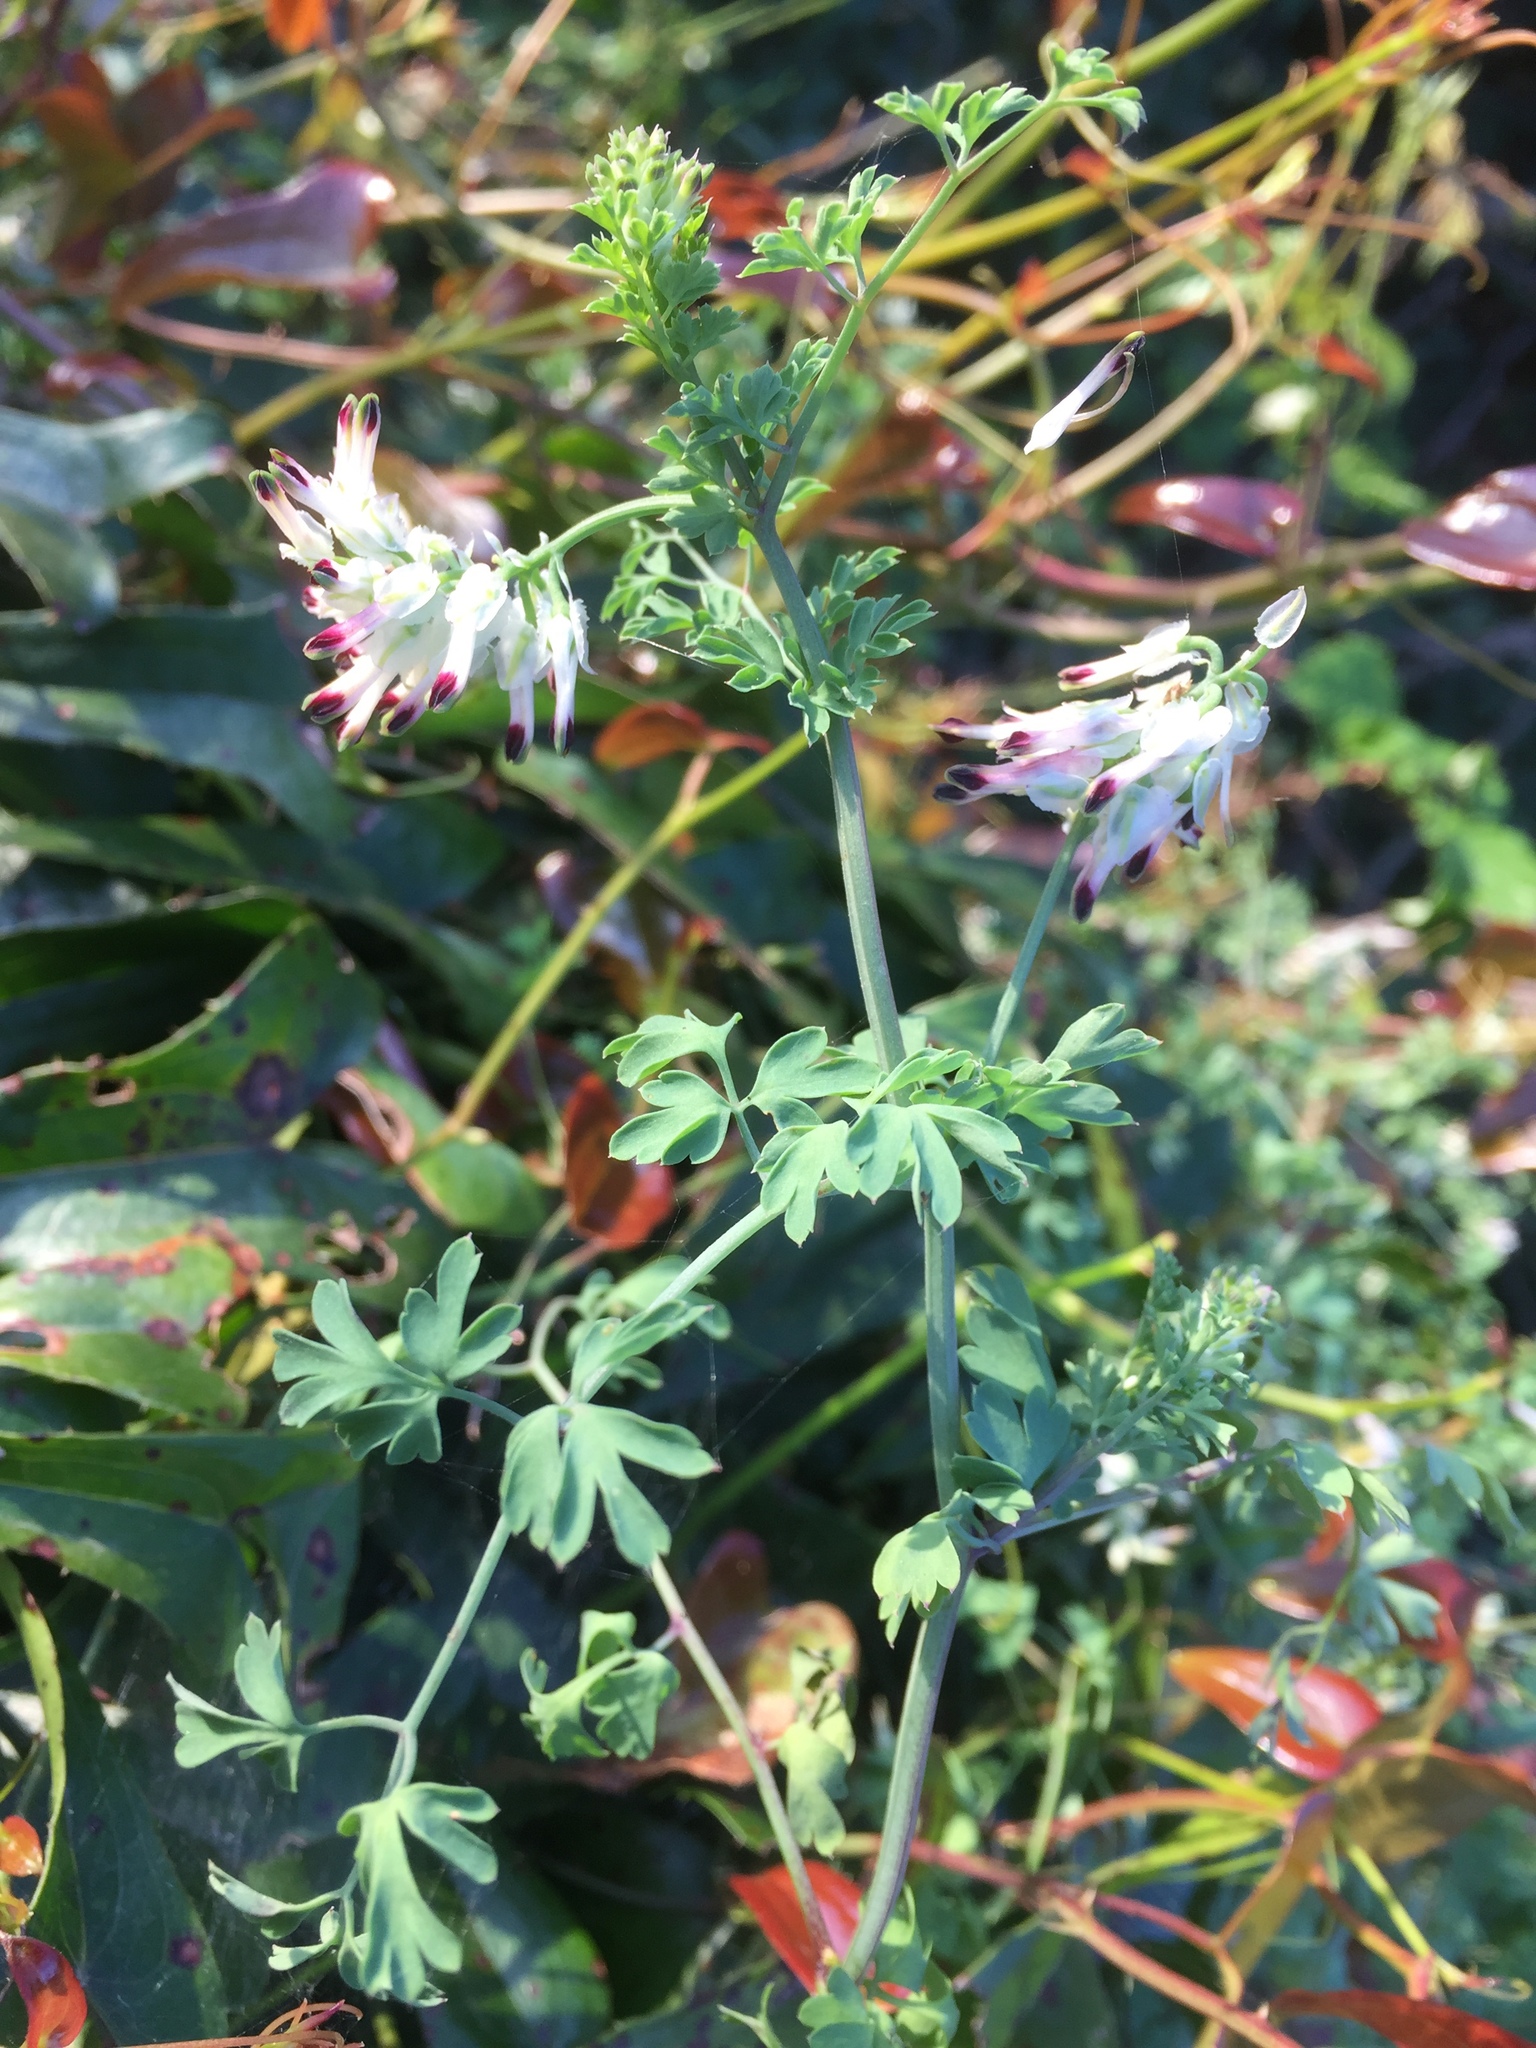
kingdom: Plantae
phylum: Tracheophyta
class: Magnoliopsida
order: Ranunculales
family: Papaveraceae
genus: Fumaria
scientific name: Fumaria capreolata
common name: White ramping-fumitory
